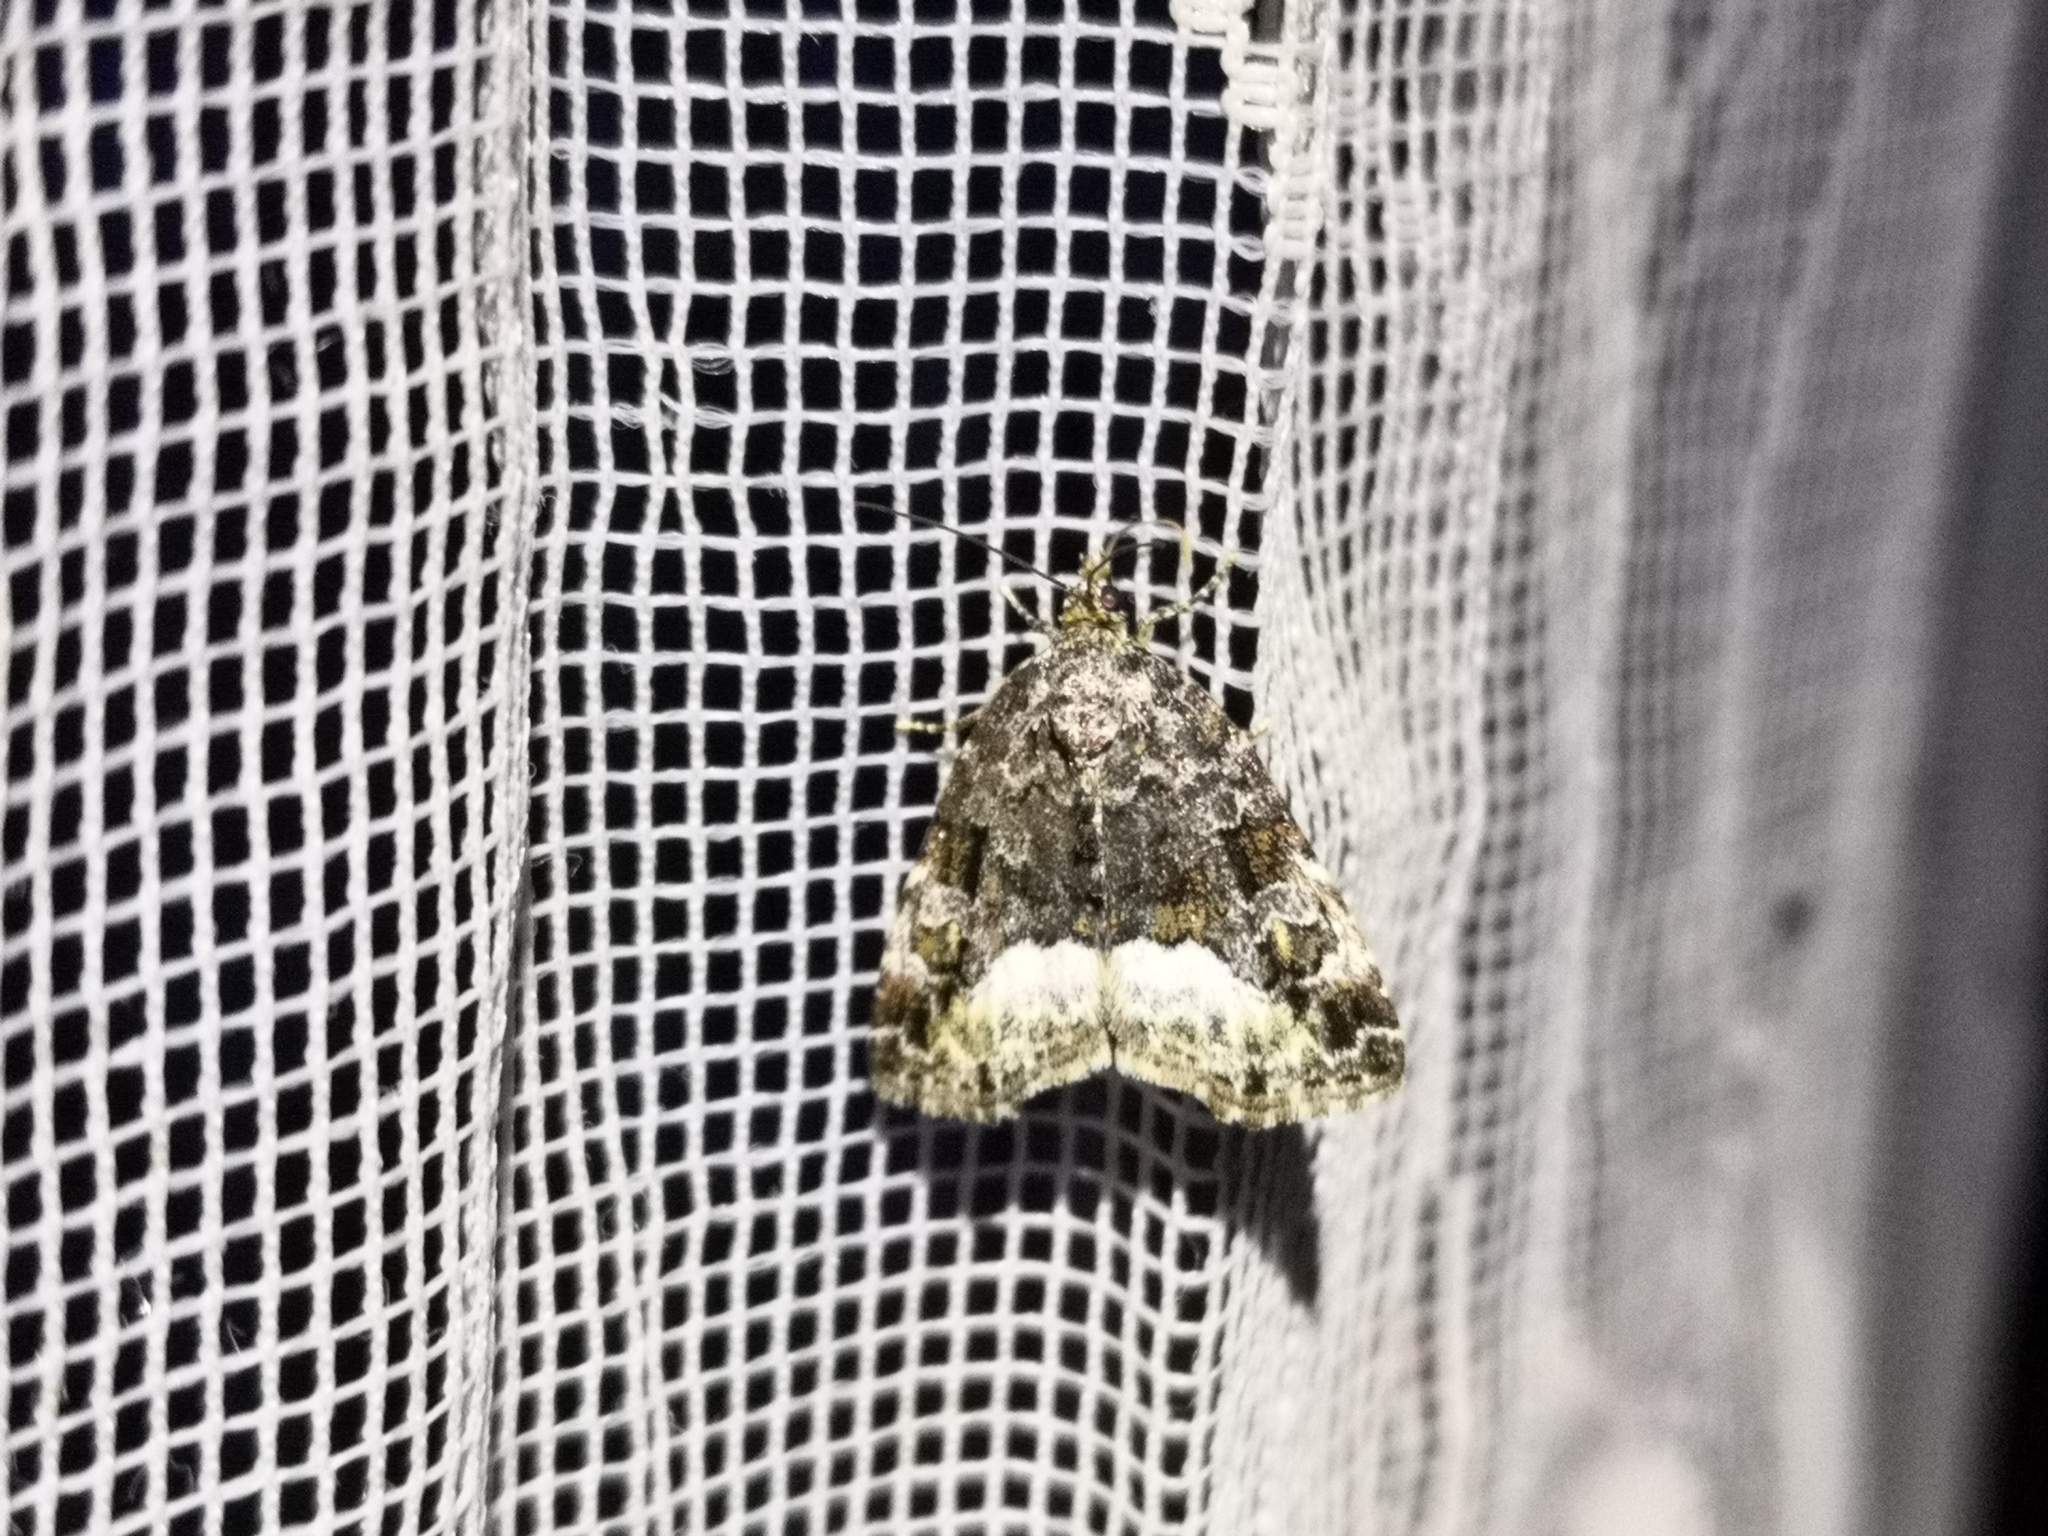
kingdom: Animalia
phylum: Arthropoda
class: Insecta
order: Lepidoptera
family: Noctuidae
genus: Deltote
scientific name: Deltote pygarga
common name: Marbled white spot
